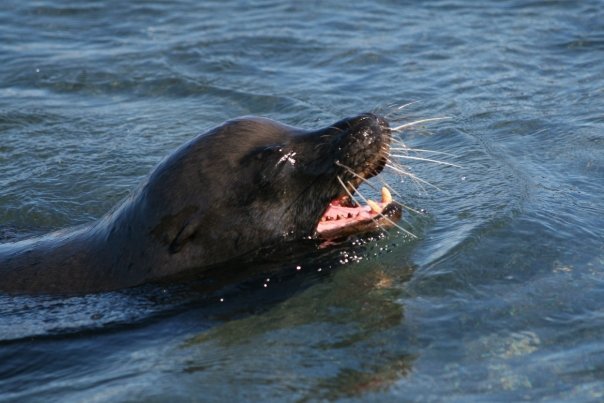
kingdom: Animalia
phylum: Chordata
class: Mammalia
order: Carnivora
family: Otariidae
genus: Zalophus
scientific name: Zalophus wollebaeki
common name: Galapagos sea lion
